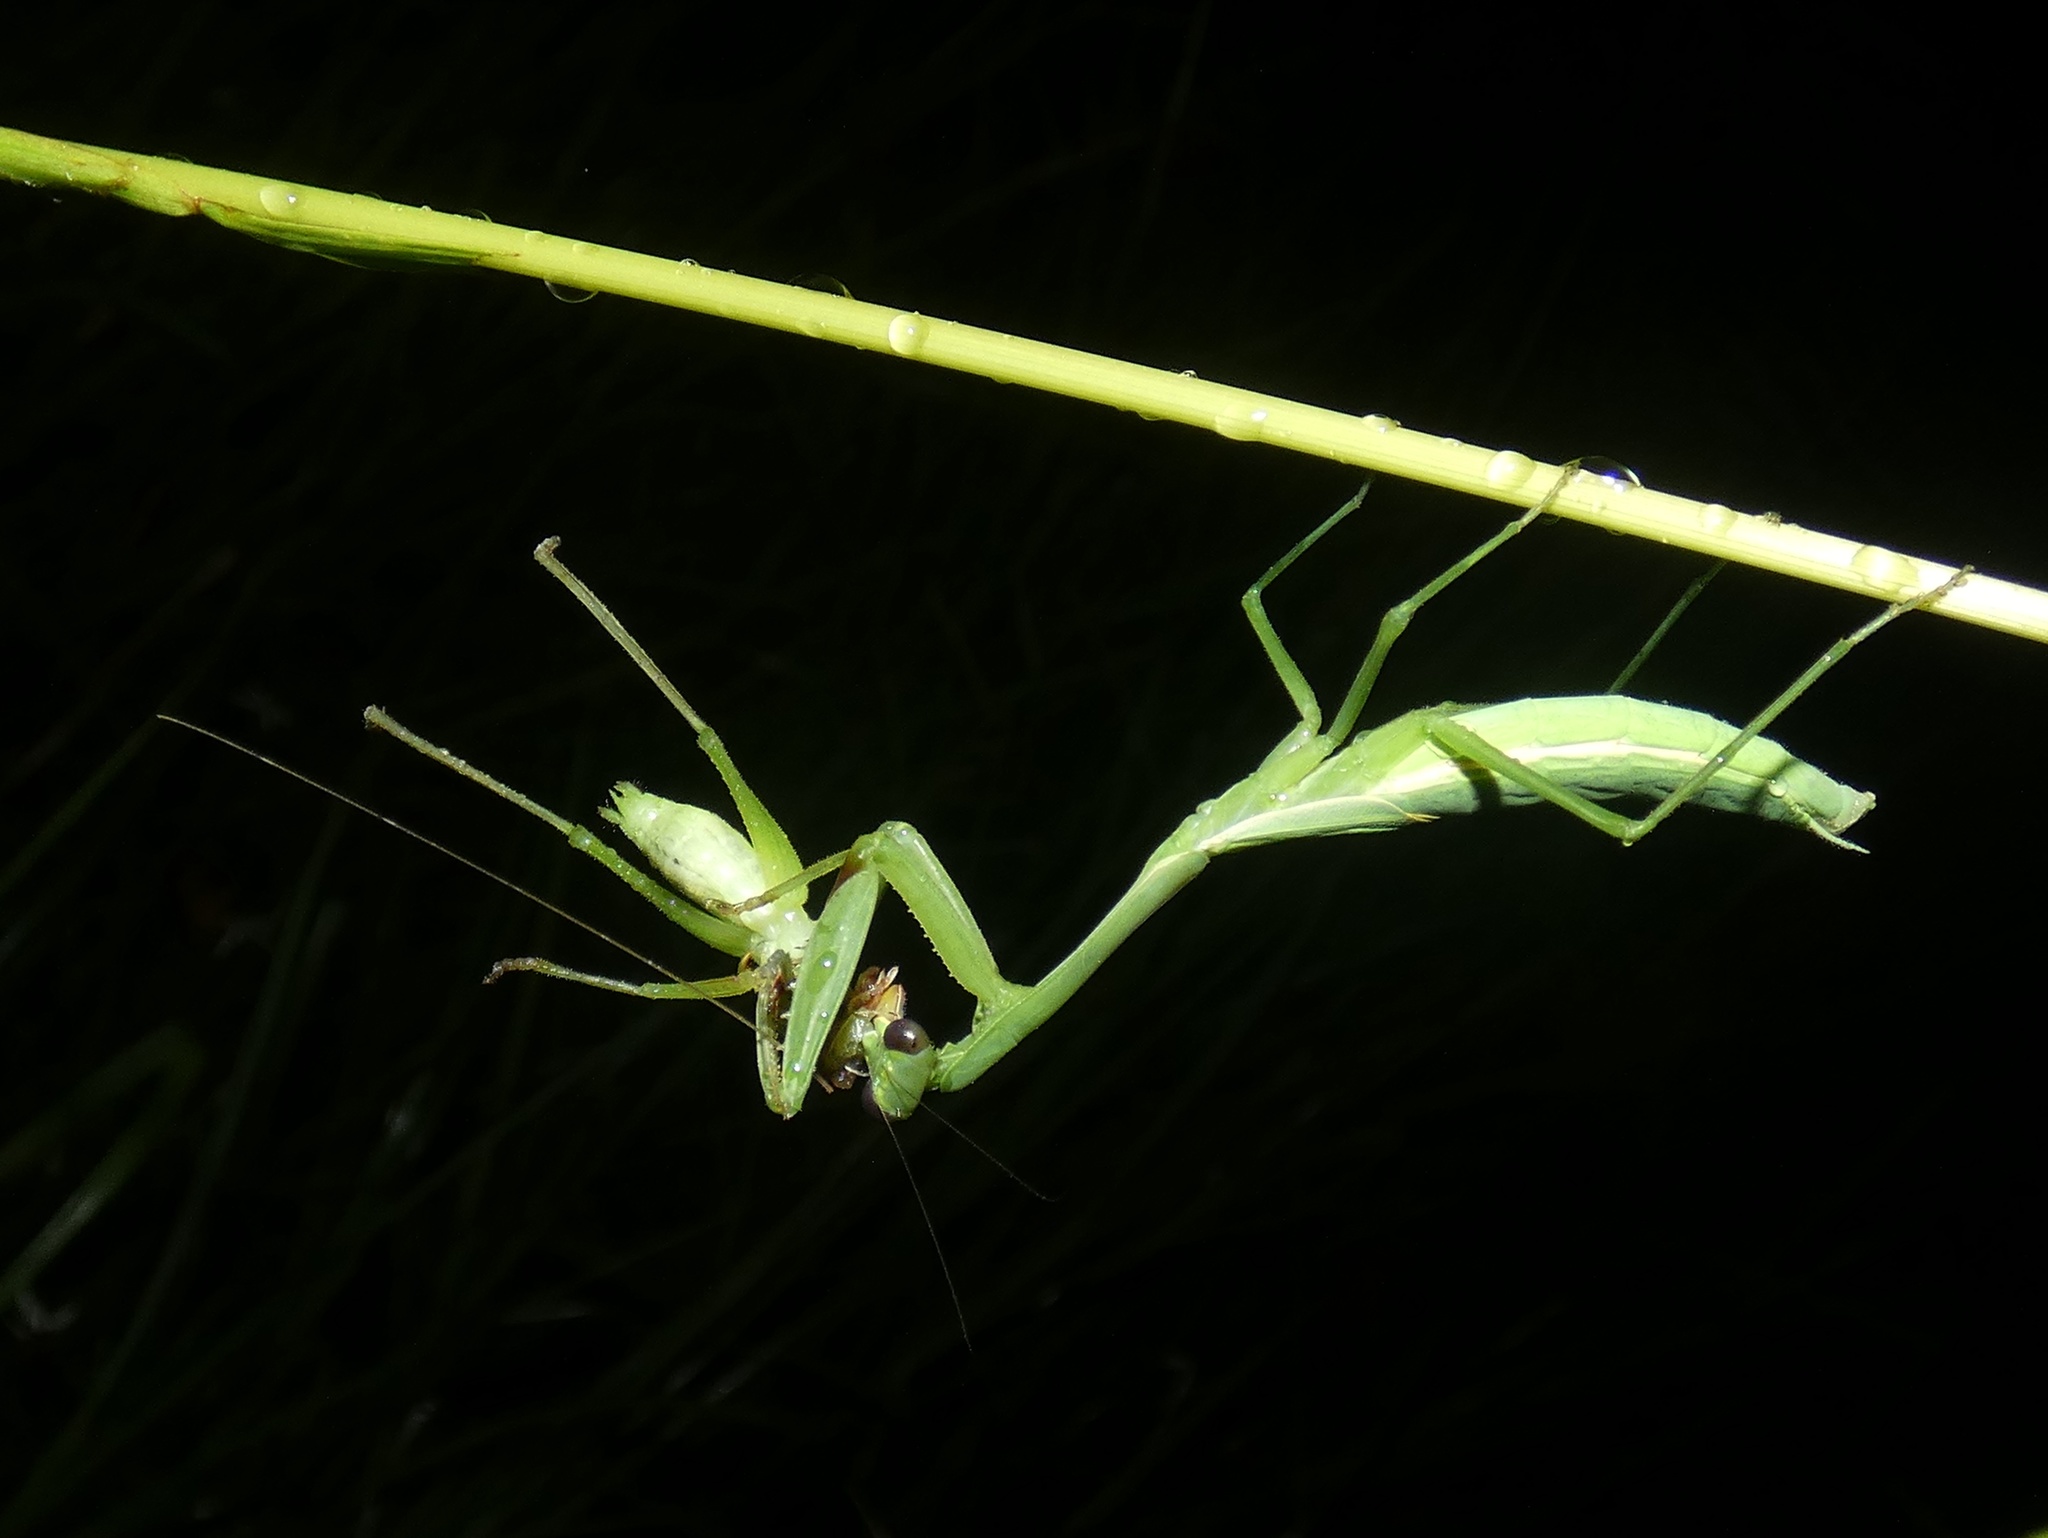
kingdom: Animalia
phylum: Arthropoda
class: Insecta
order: Mantodea
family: Mantidae
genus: Stagmomantis
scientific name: Stagmomantis nahua
